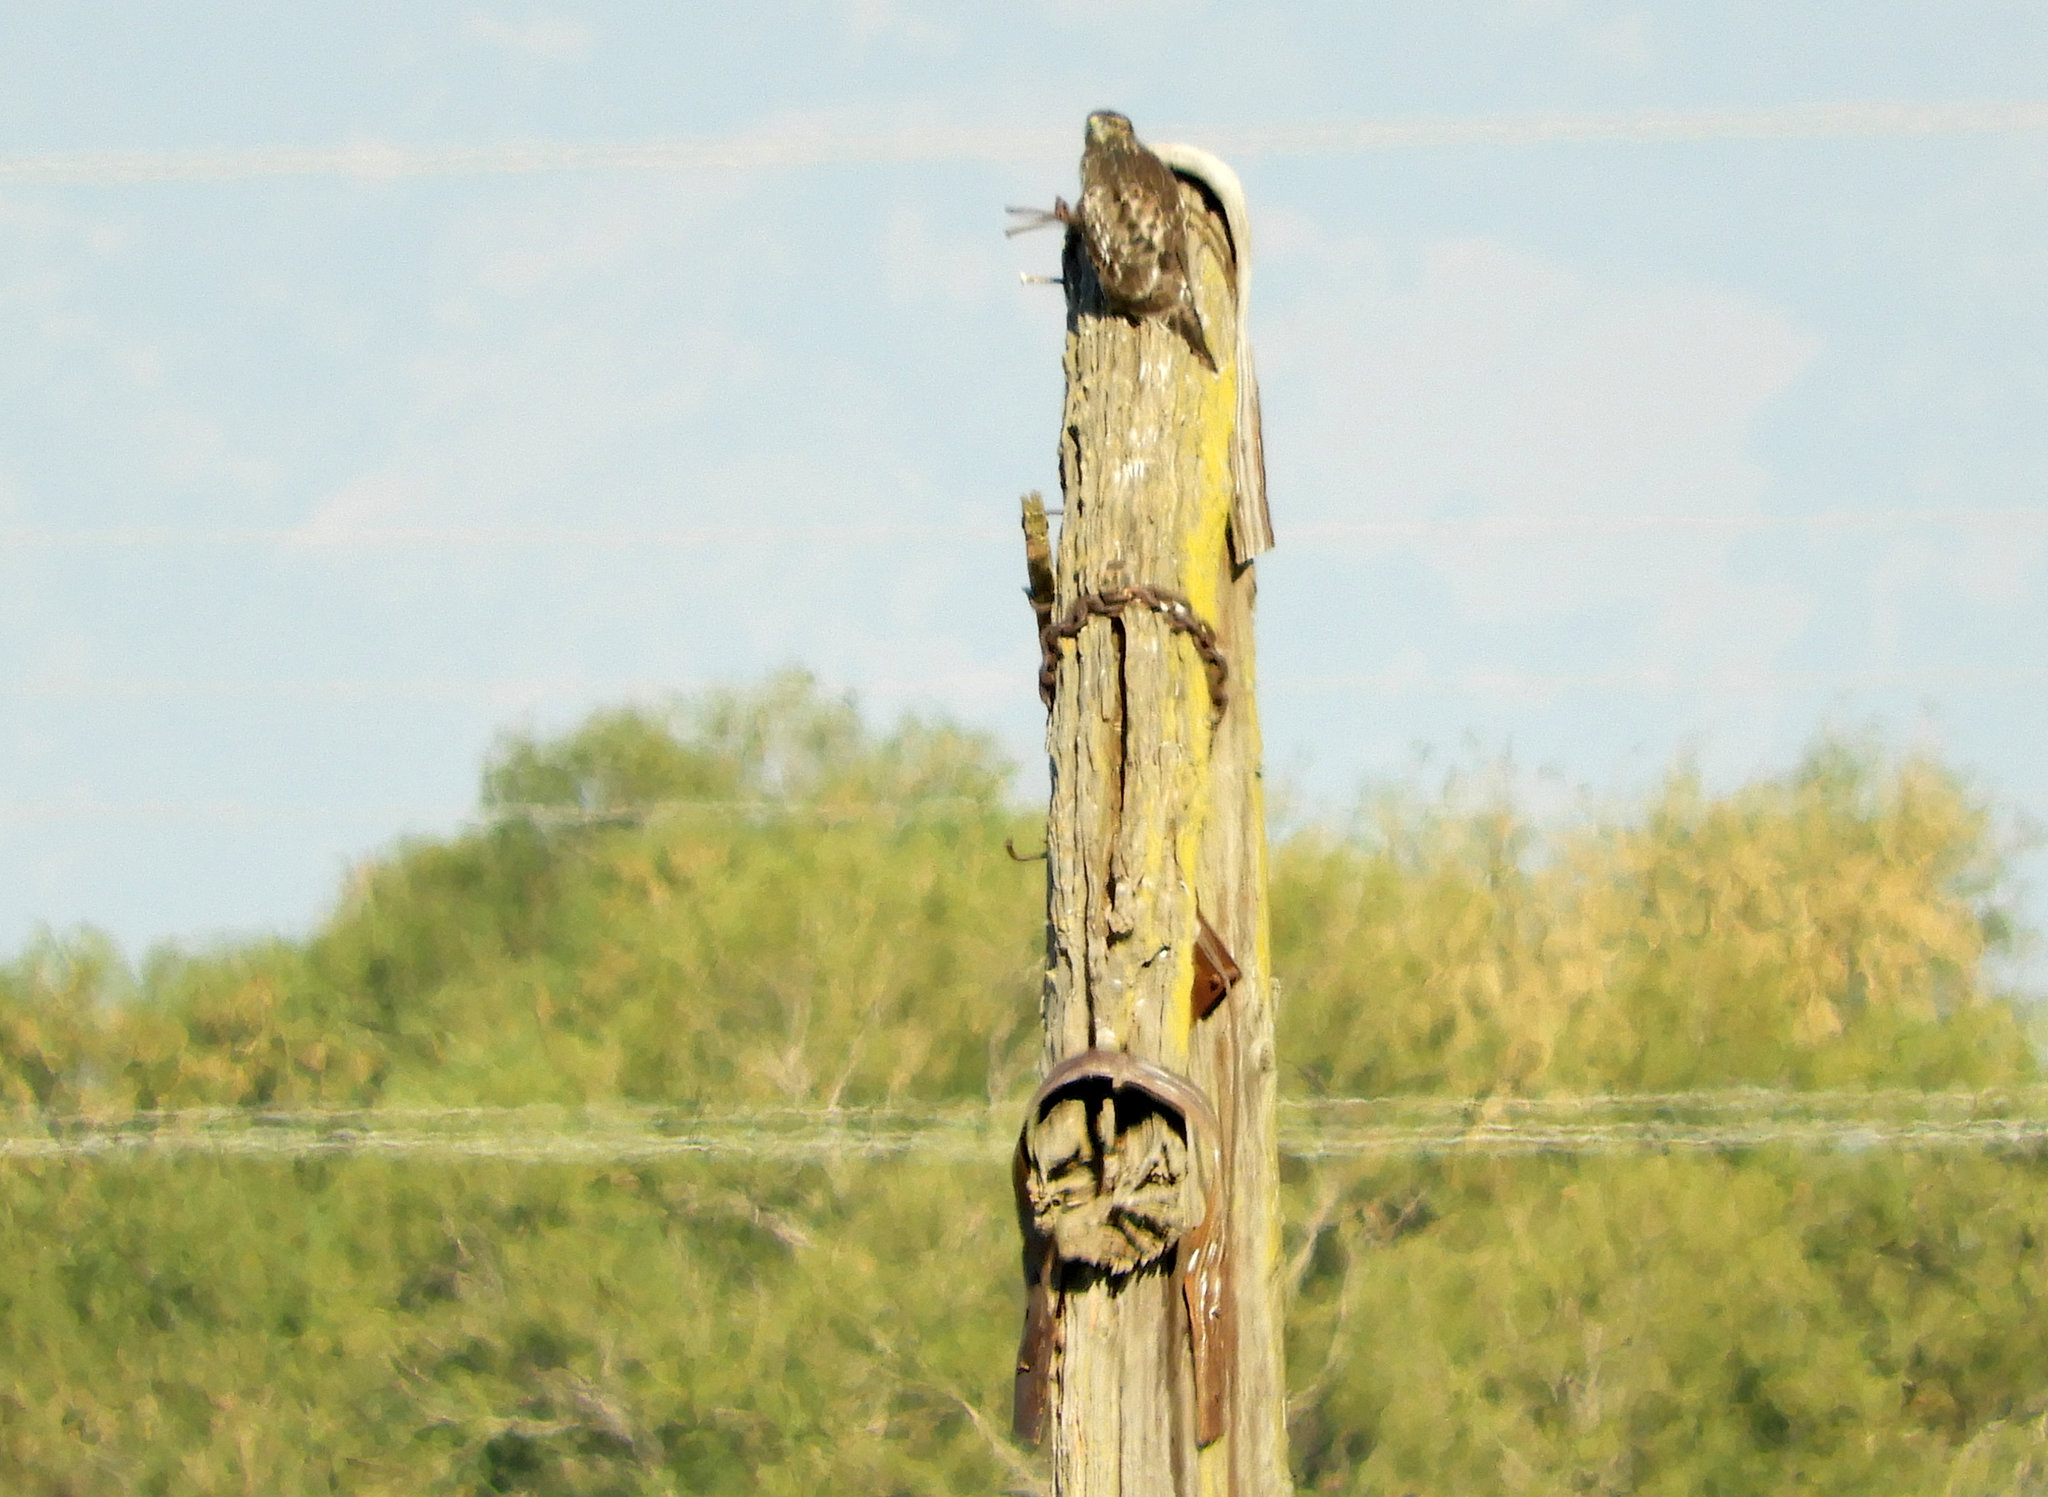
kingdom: Animalia
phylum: Chordata
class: Aves
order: Accipitriformes
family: Accipitridae
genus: Buteo
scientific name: Buteo lineatus
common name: Red-shouldered hawk
